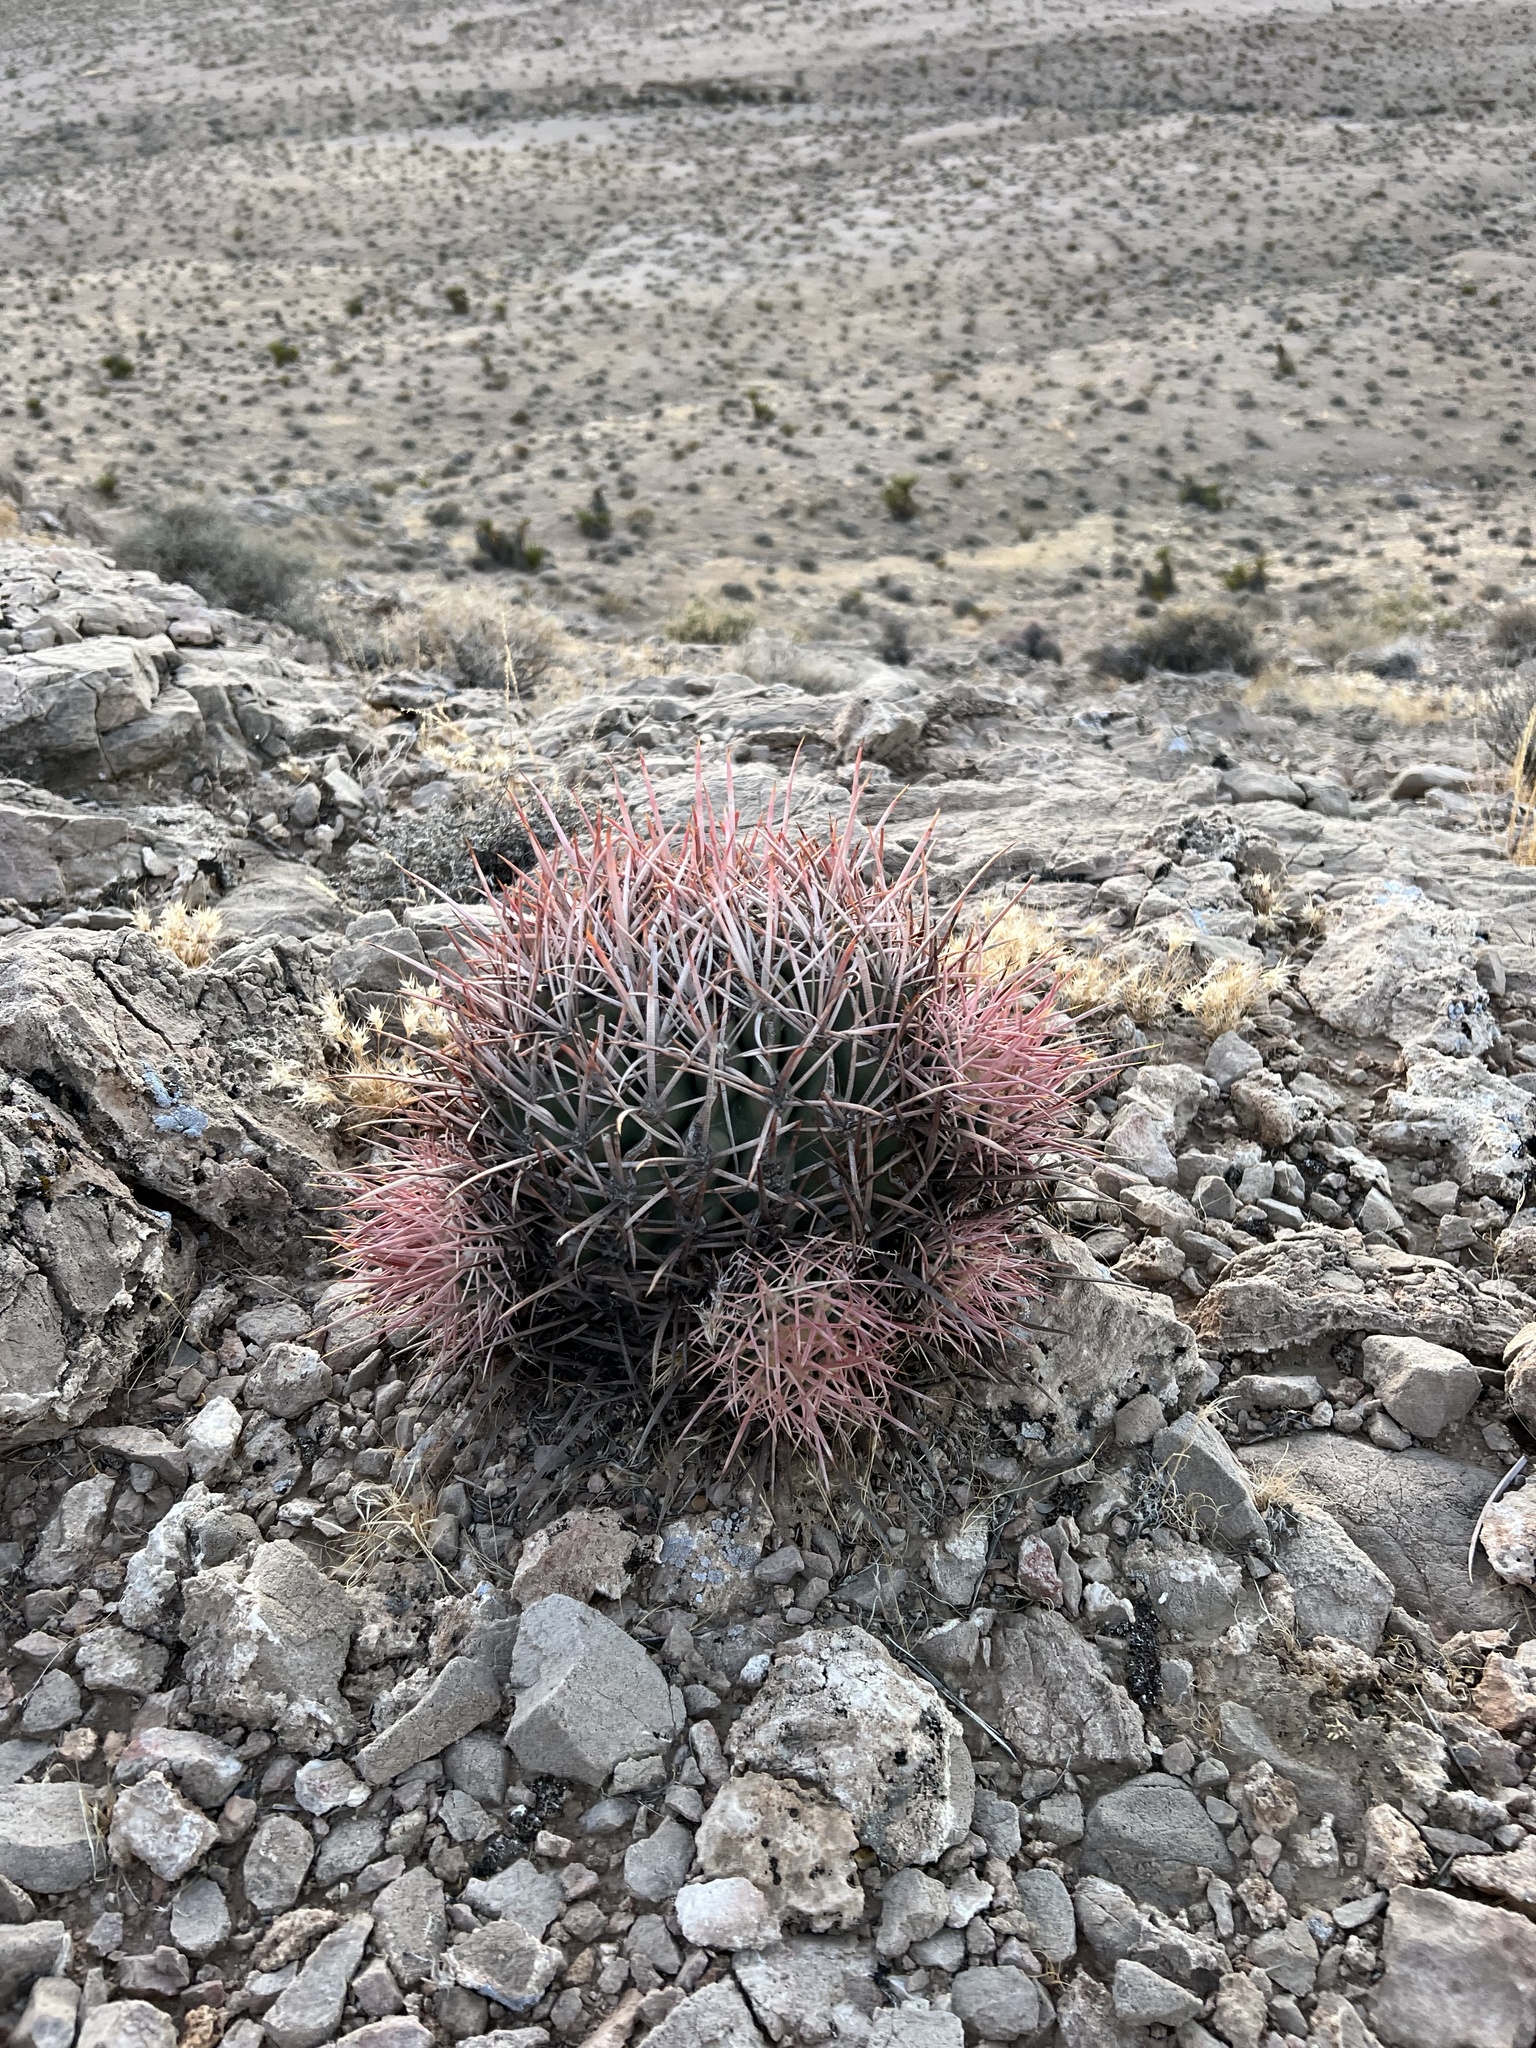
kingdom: Plantae
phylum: Tracheophyta
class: Magnoliopsida
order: Caryophyllales
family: Cactaceae
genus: Echinocactus
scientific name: Echinocactus polycephalus
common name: Cottontop cactus
